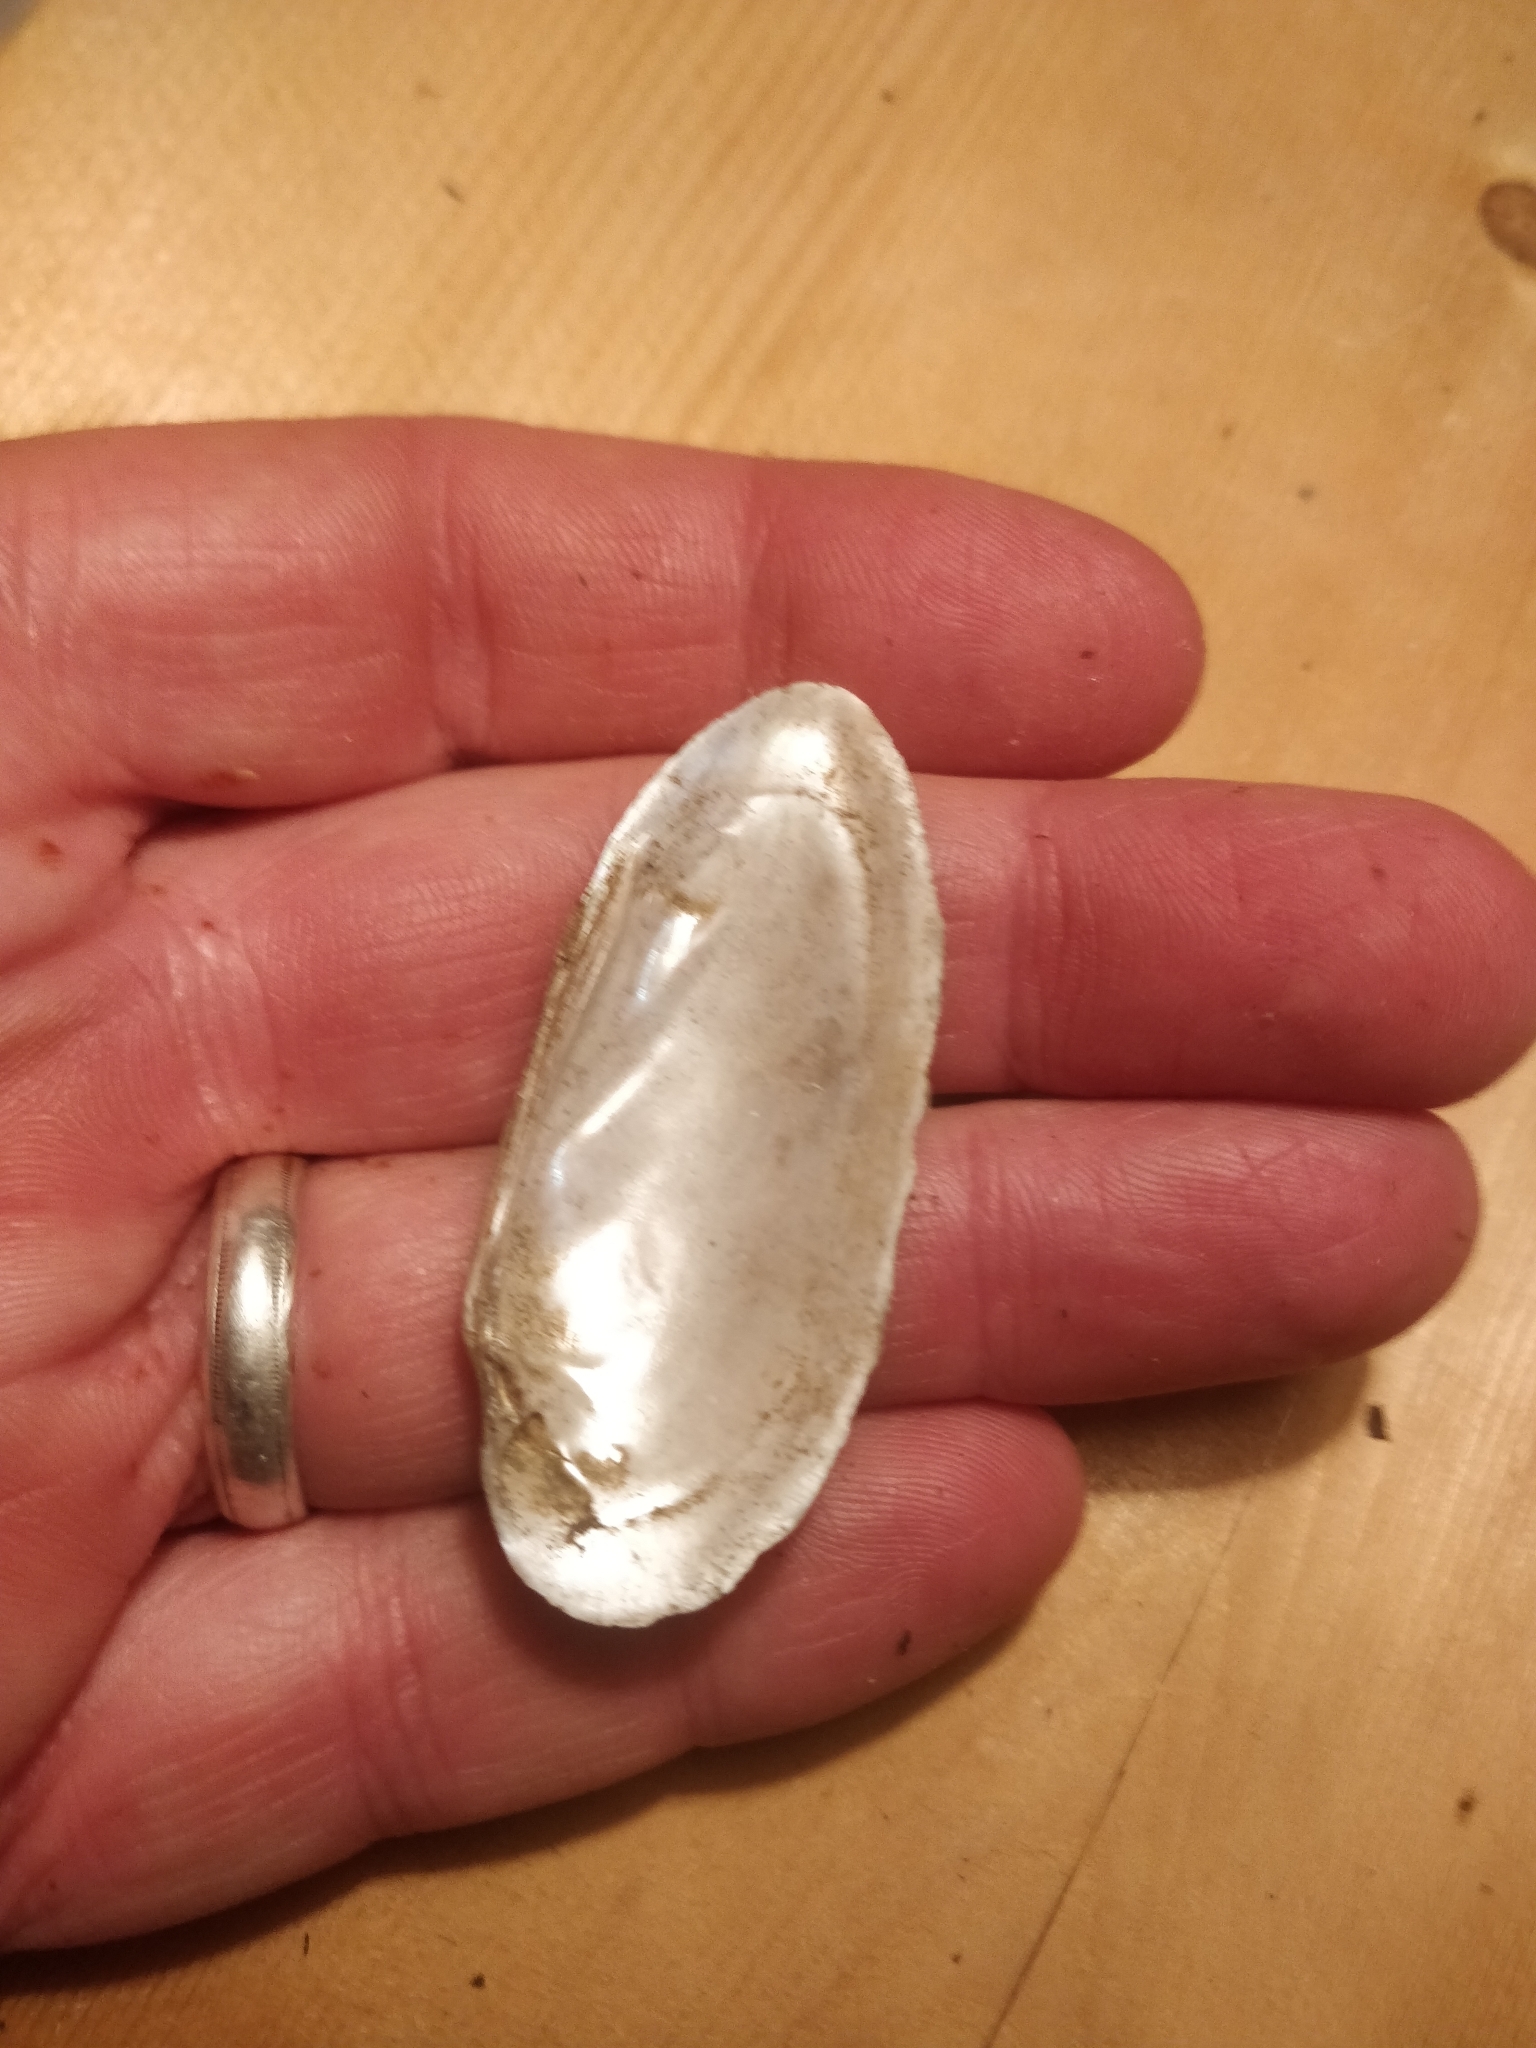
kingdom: Animalia
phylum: Mollusca
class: Bivalvia
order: Unionida
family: Unionidae
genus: Lampsilis
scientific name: Lampsilis teres
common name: Yellow sandshell
